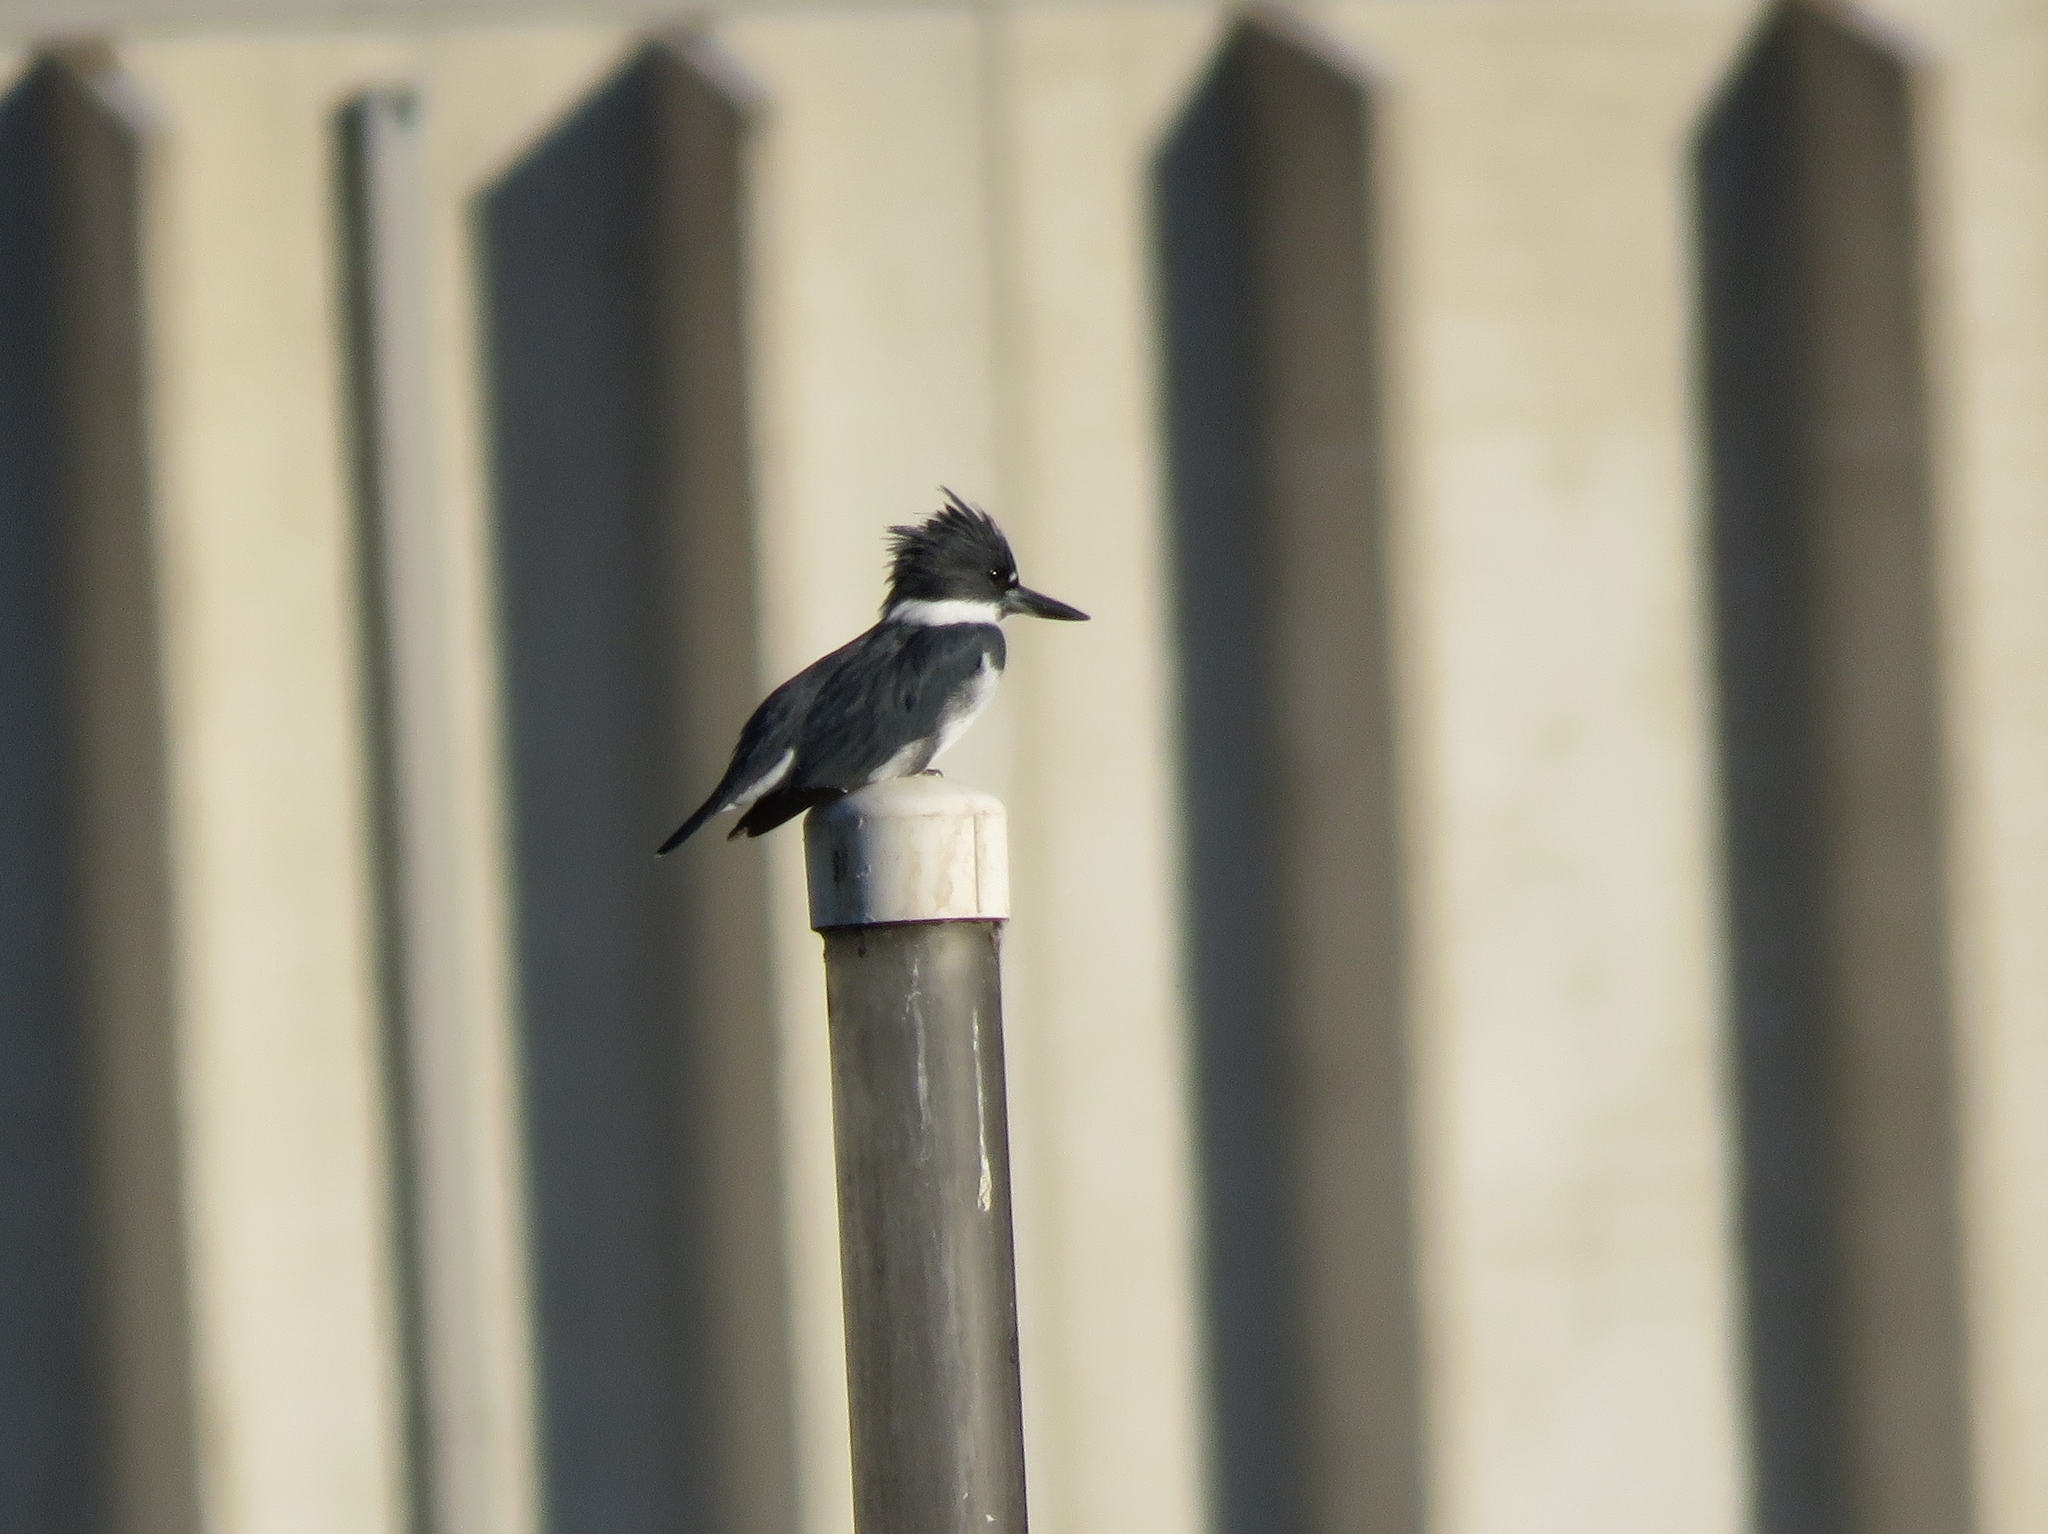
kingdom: Animalia
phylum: Chordata
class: Aves
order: Coraciiformes
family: Alcedinidae
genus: Megaceryle
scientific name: Megaceryle alcyon
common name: Belted kingfisher
